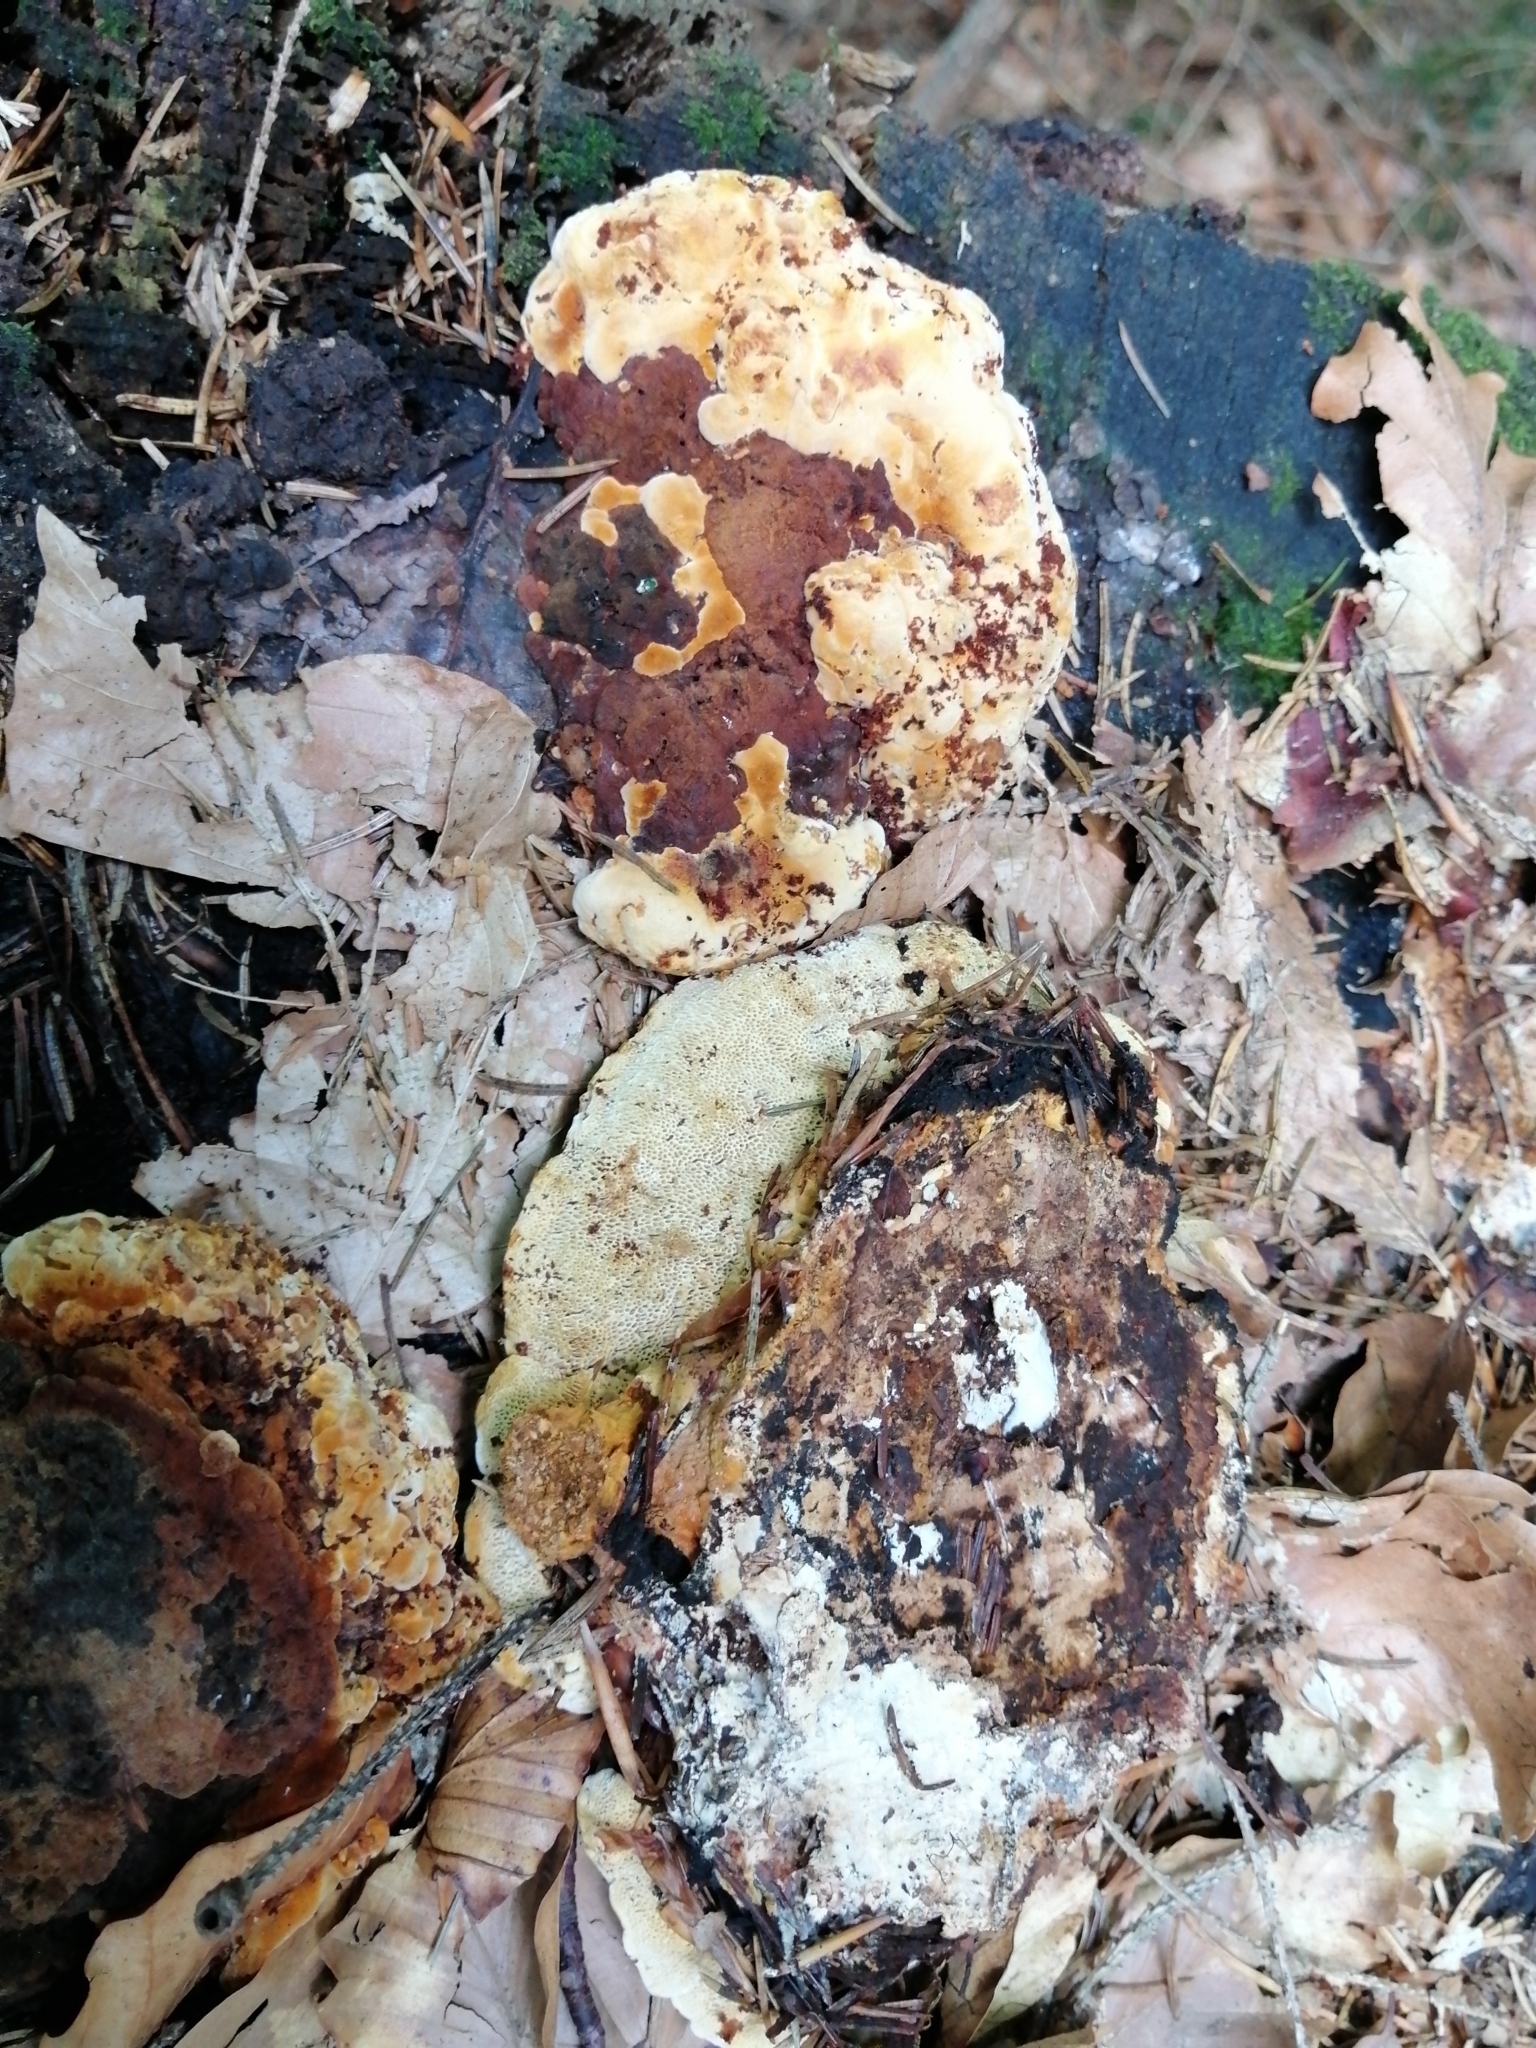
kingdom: Fungi
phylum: Basidiomycota
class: Agaricomycetes
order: Gloeophyllales
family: Gloeophyllaceae
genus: Gloeophyllum
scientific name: Gloeophyllum odoratum
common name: Anise mazegill
